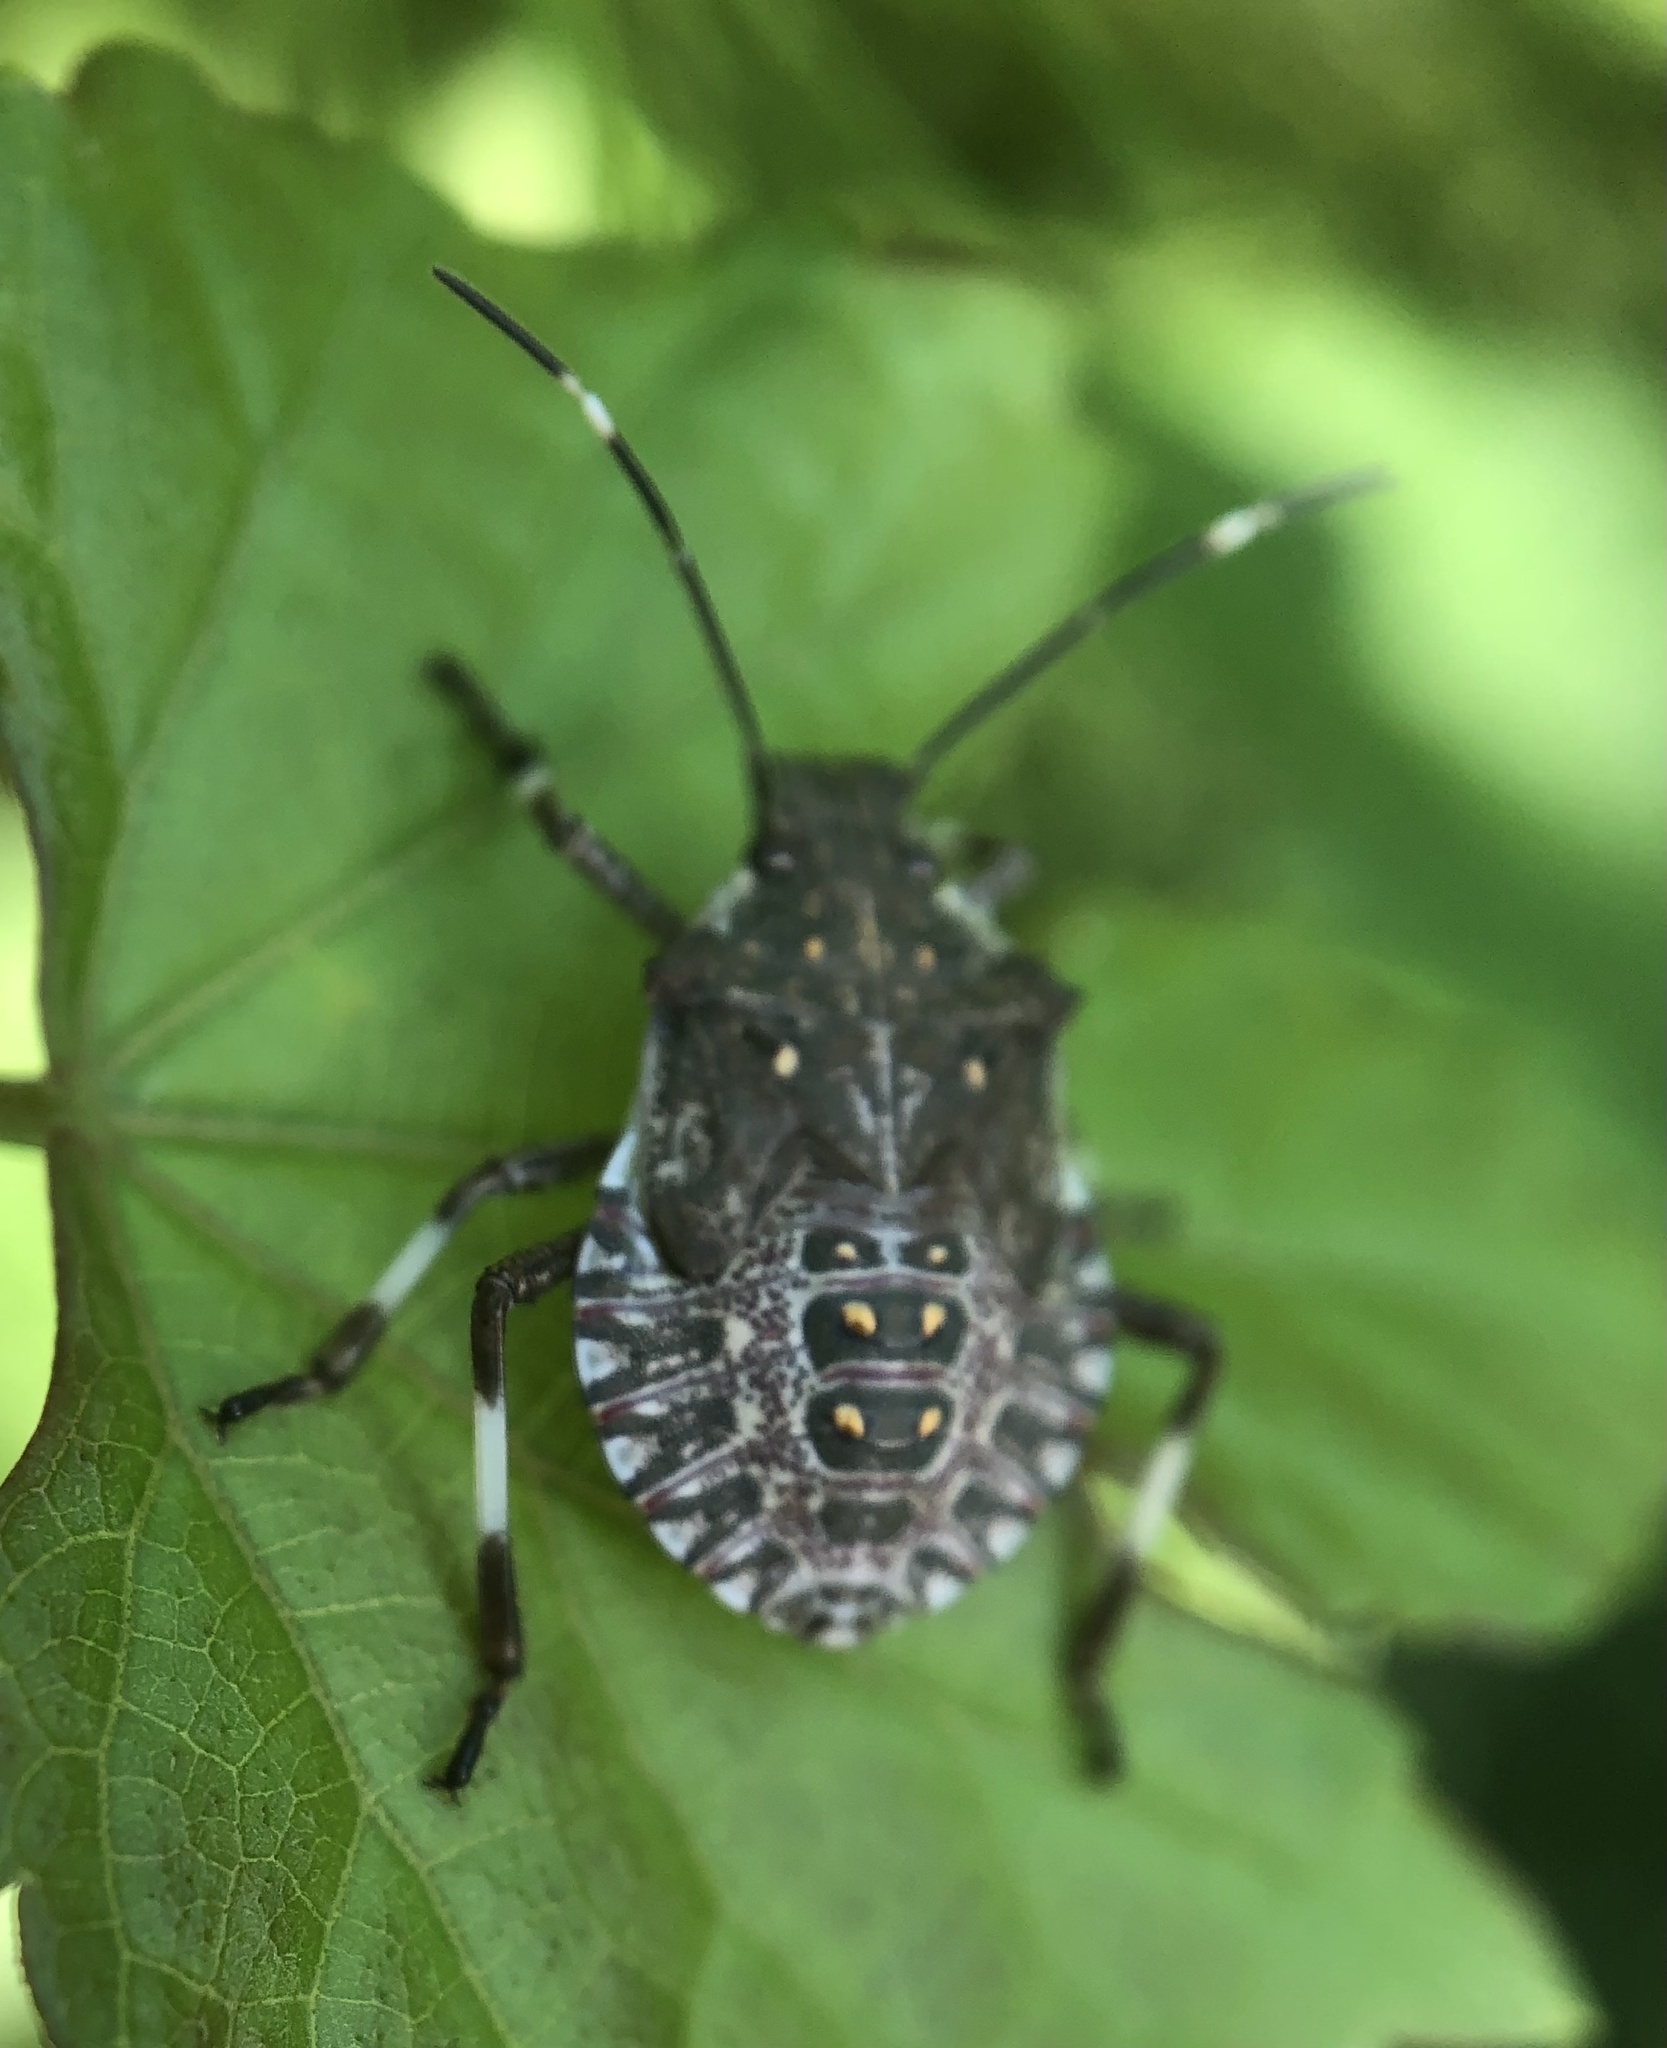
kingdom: Animalia
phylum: Arthropoda
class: Insecta
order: Hemiptera
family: Pentatomidae
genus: Halyomorpha
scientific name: Halyomorpha halys
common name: Brown marmorated stink bug
